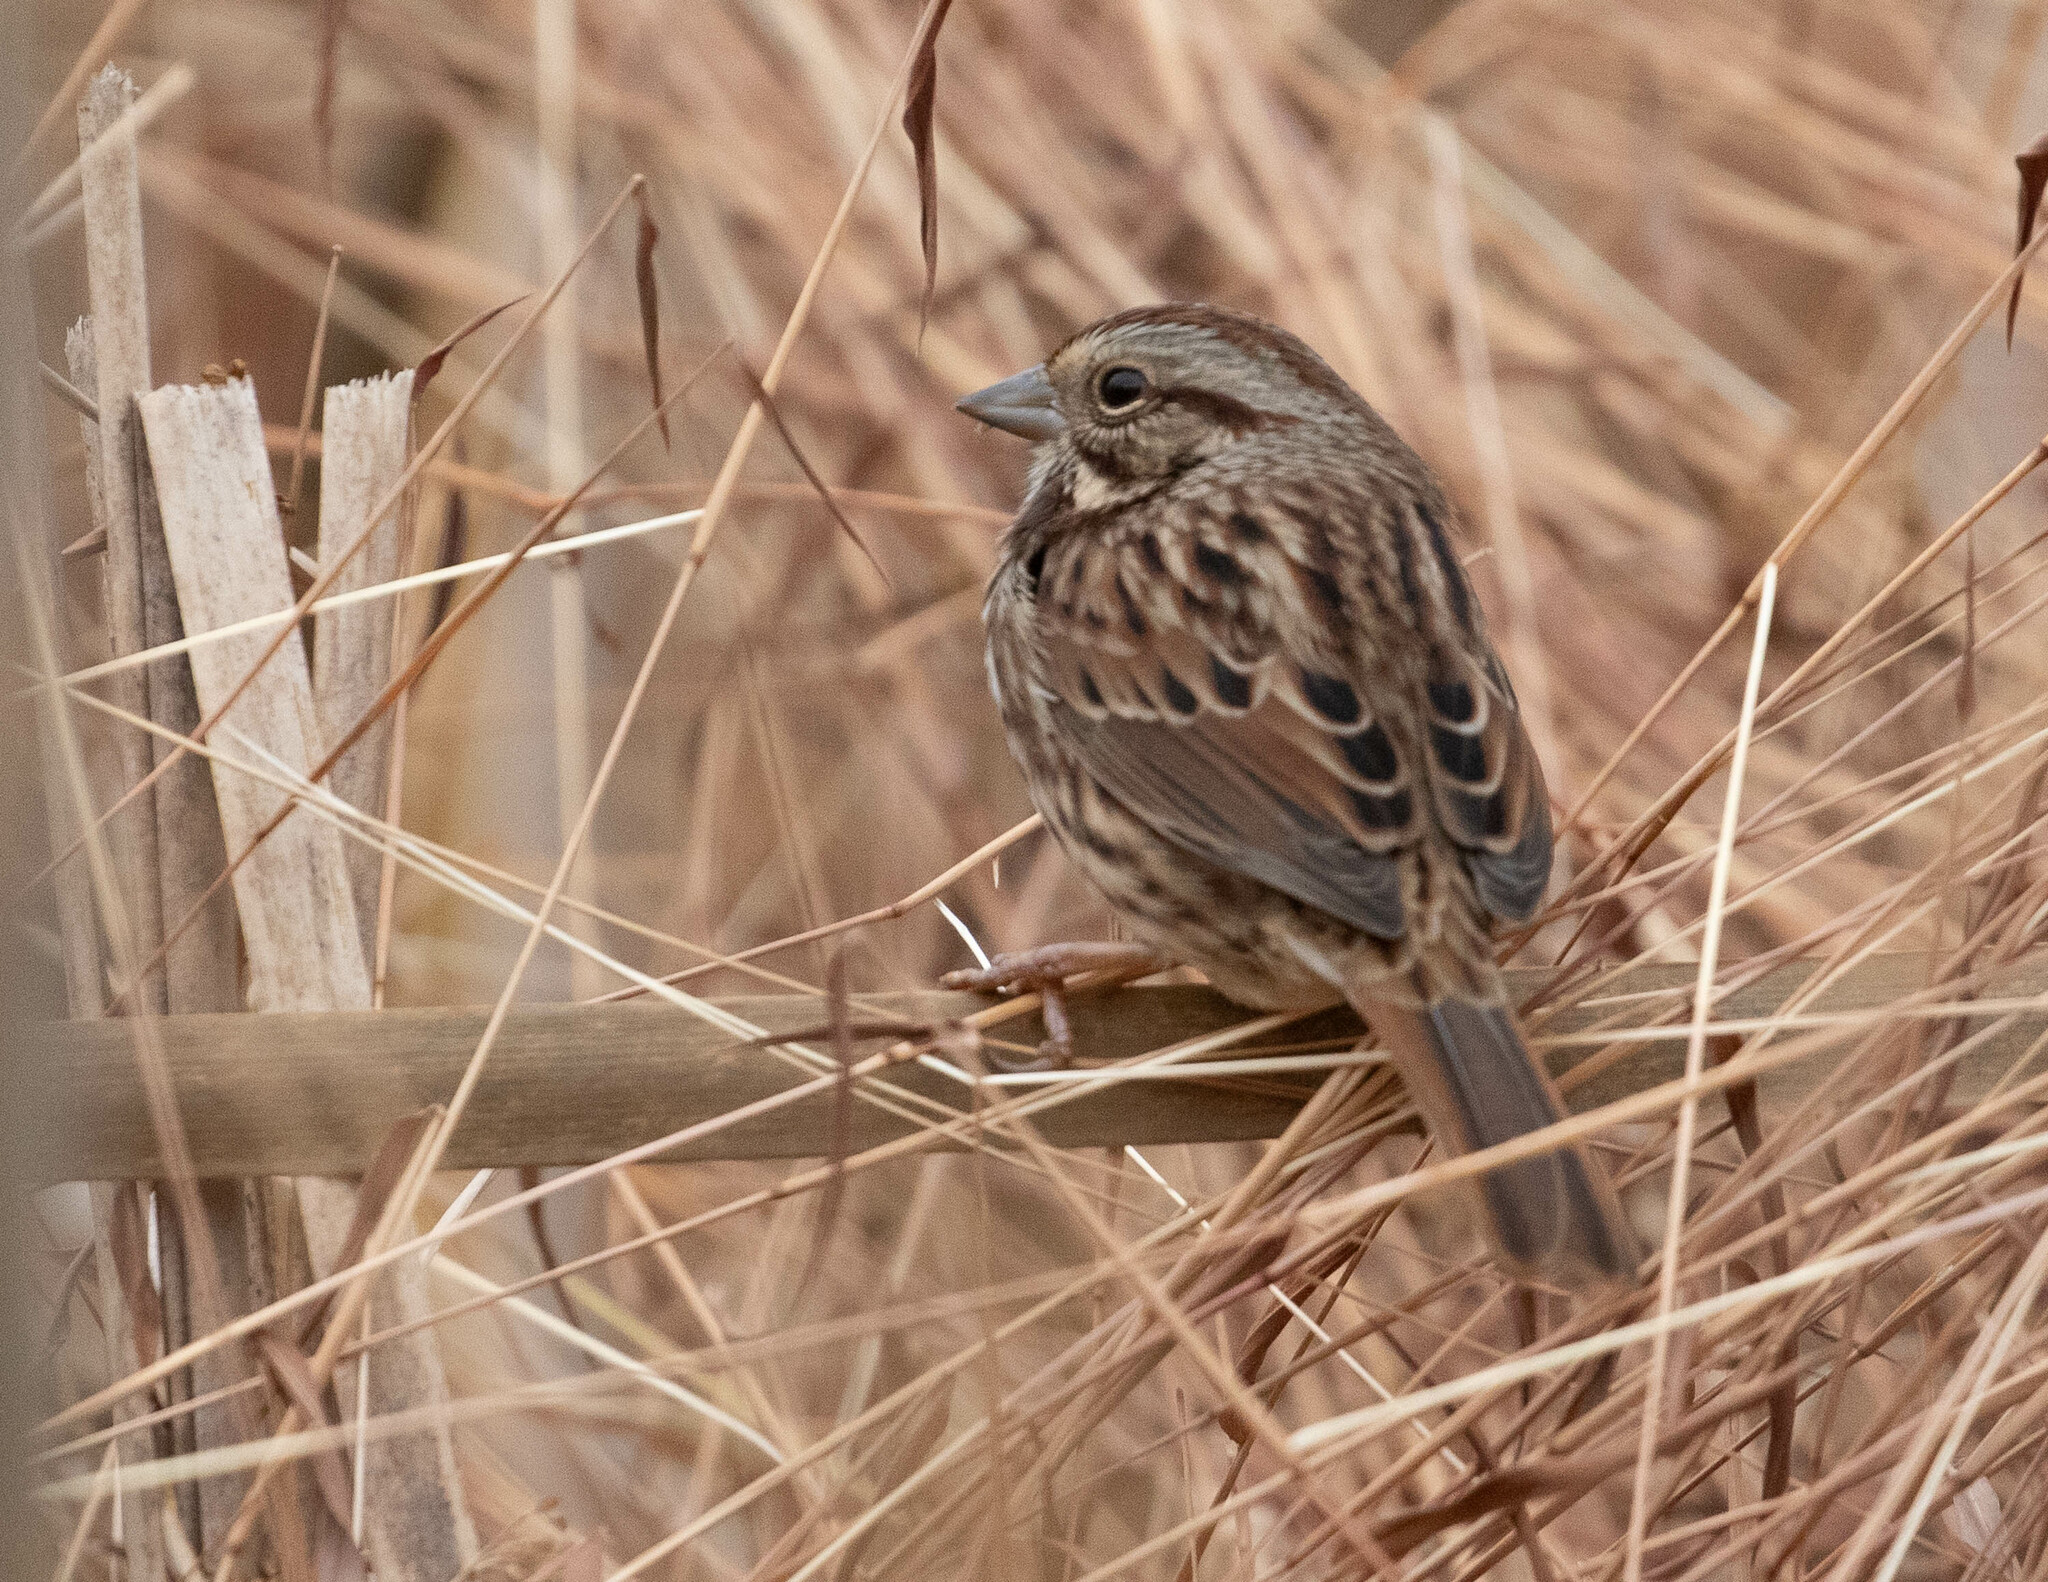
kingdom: Animalia
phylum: Chordata
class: Aves
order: Passeriformes
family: Passerellidae
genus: Melospiza
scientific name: Melospiza melodia
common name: Song sparrow
